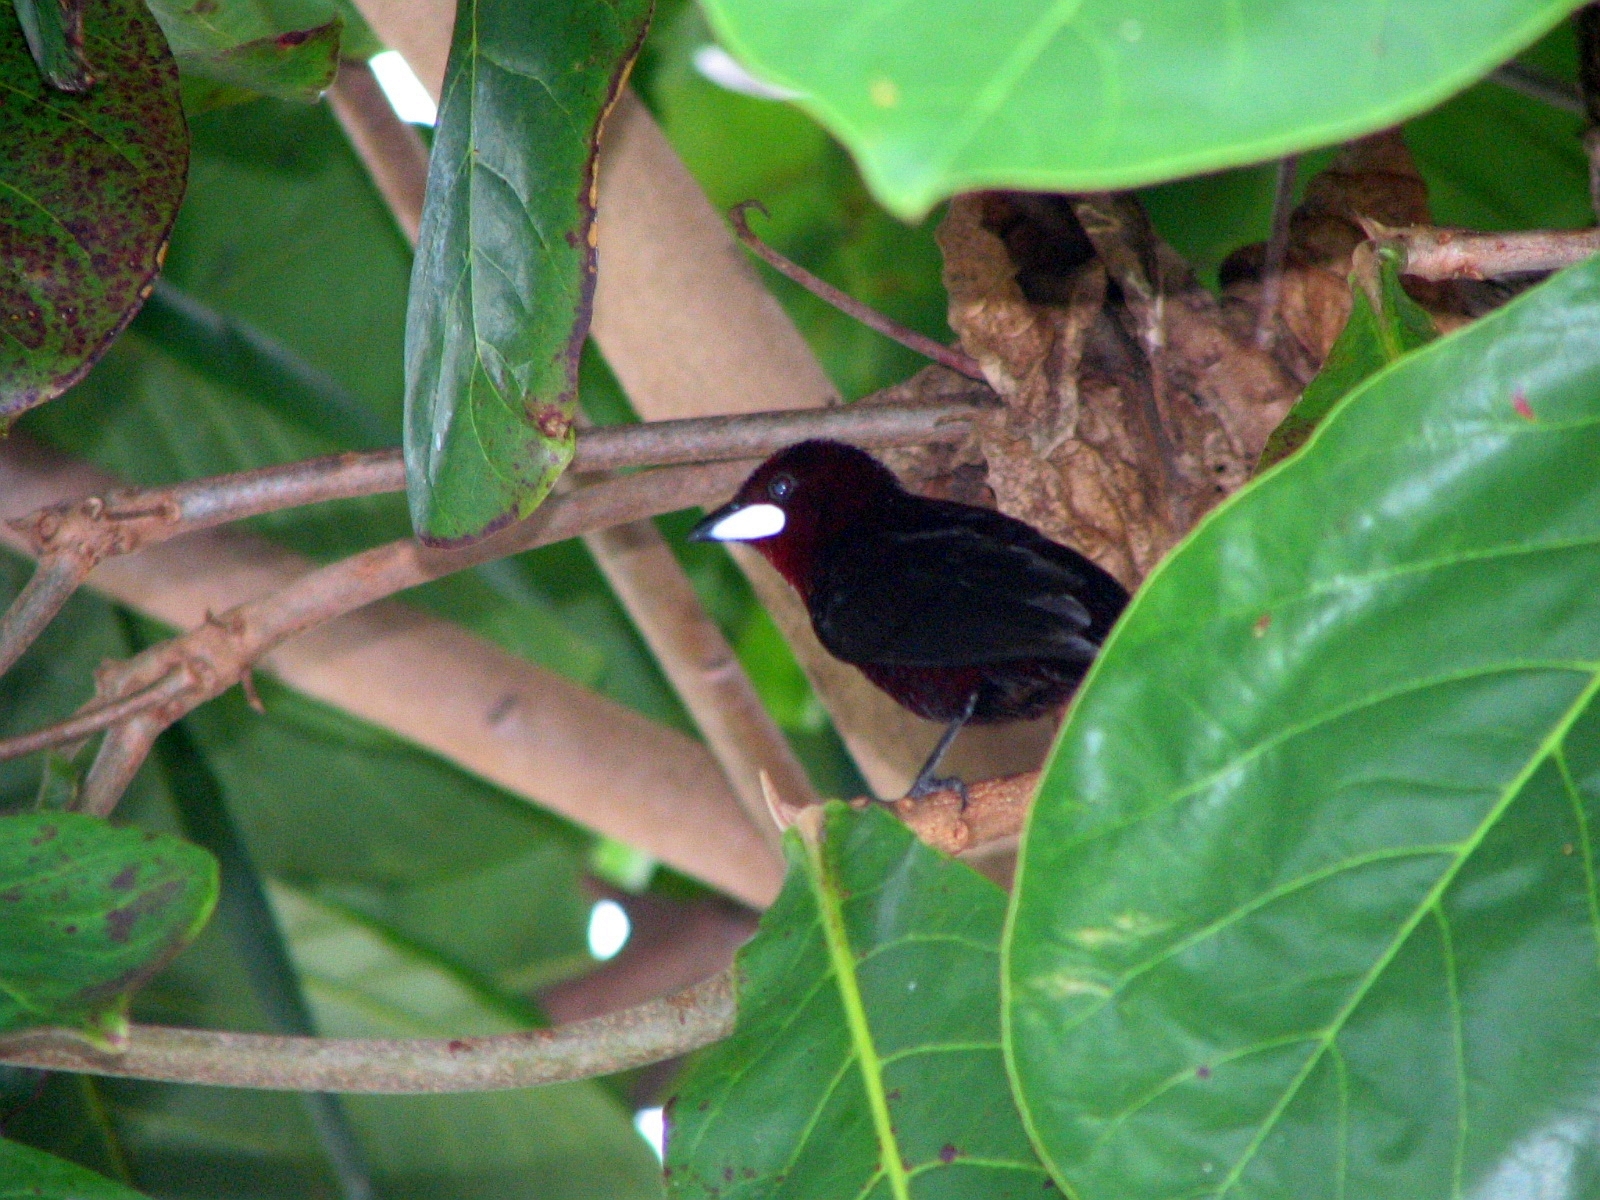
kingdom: Animalia
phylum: Chordata
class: Aves
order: Passeriformes
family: Thraupidae
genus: Ramphocelus
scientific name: Ramphocelus carbo
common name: Silver-beaked tanager
